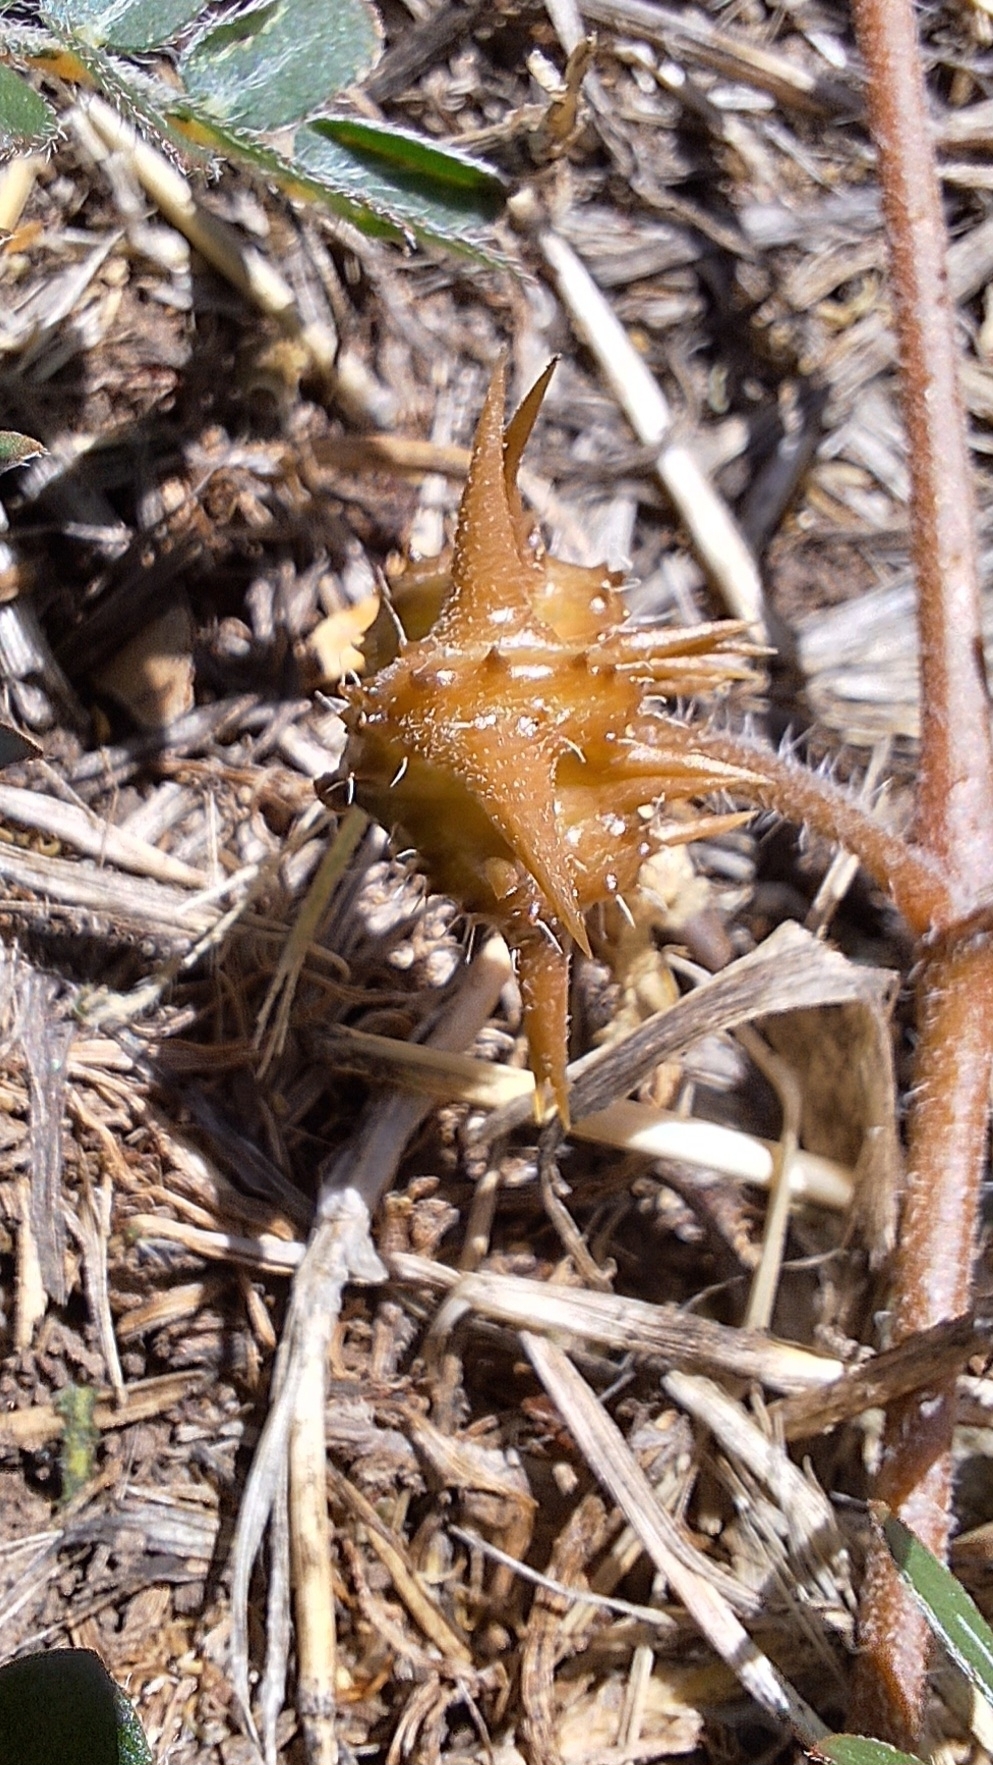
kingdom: Plantae
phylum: Tracheophyta
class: Magnoliopsida
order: Zygophyllales
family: Zygophyllaceae
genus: Tribulus
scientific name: Tribulus terrestris
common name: Puncturevine
